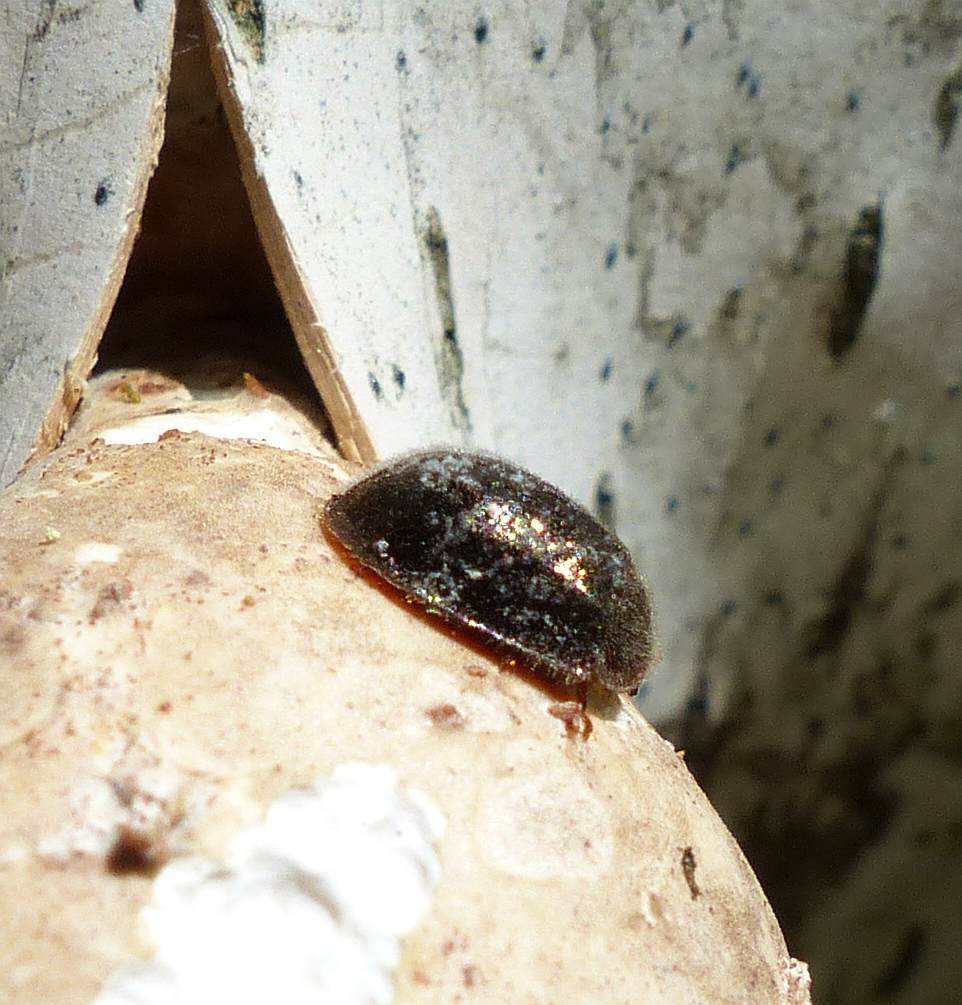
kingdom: Animalia
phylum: Arthropoda
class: Insecta
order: Coleoptera
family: Trogossitidae
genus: Thymalus
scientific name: Thymalus marginicollis
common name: Bark-gnawing beetle
